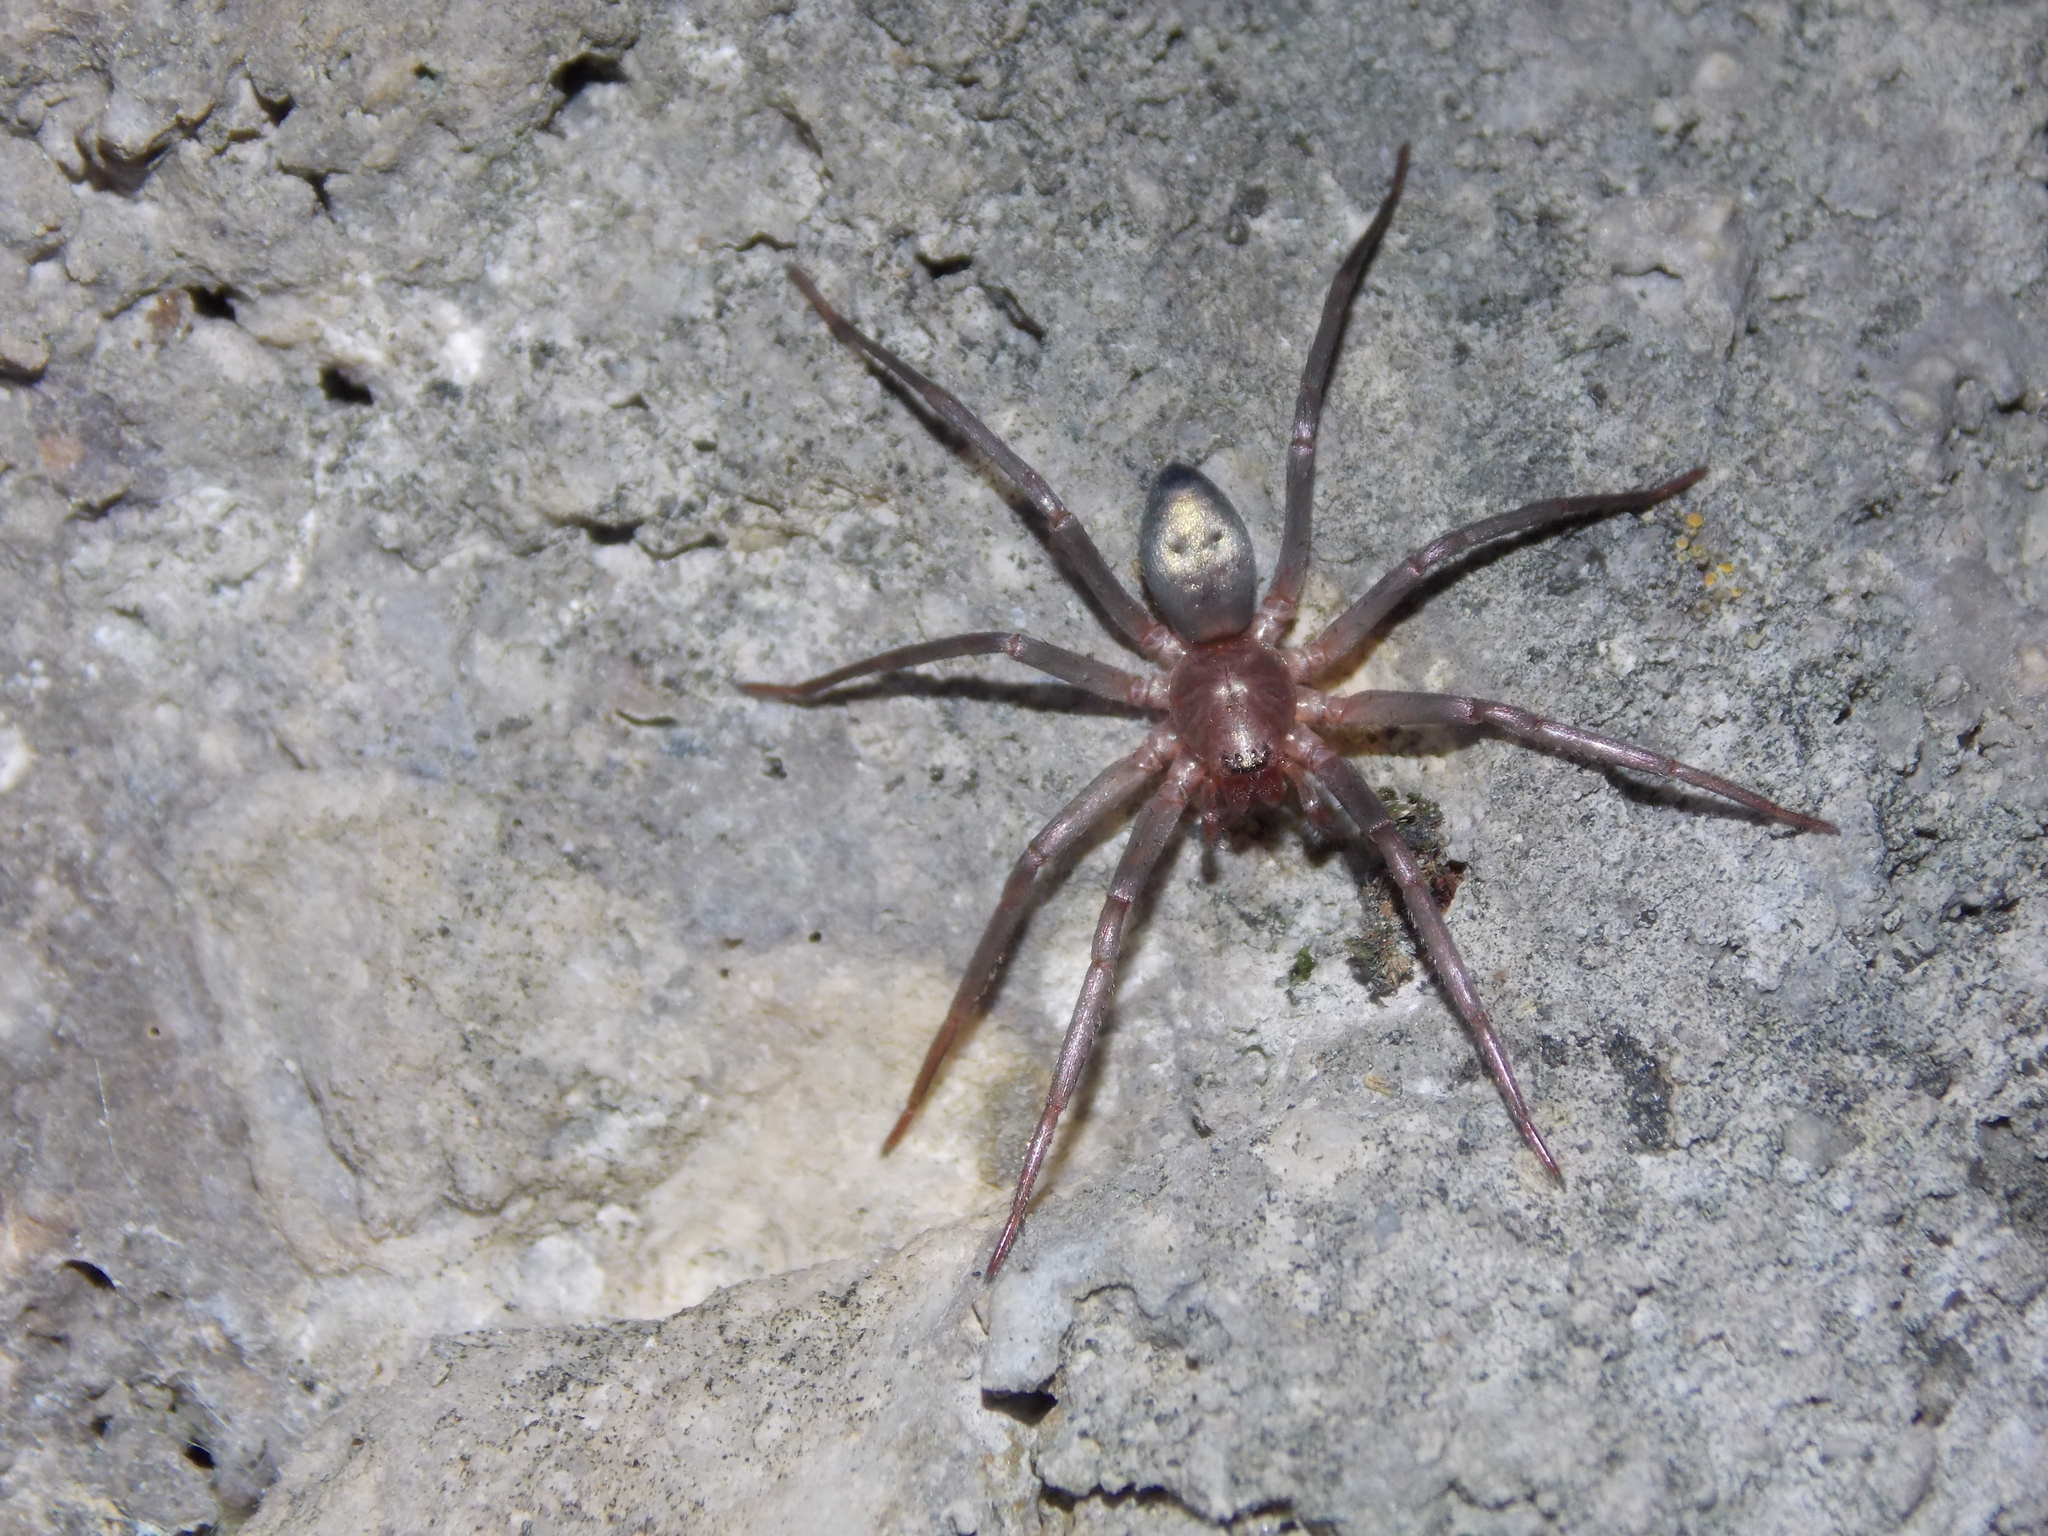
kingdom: Animalia
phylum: Arthropoda
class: Arachnida
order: Araneae
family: Liocranidae
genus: Sagana
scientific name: Sagana rutilans
